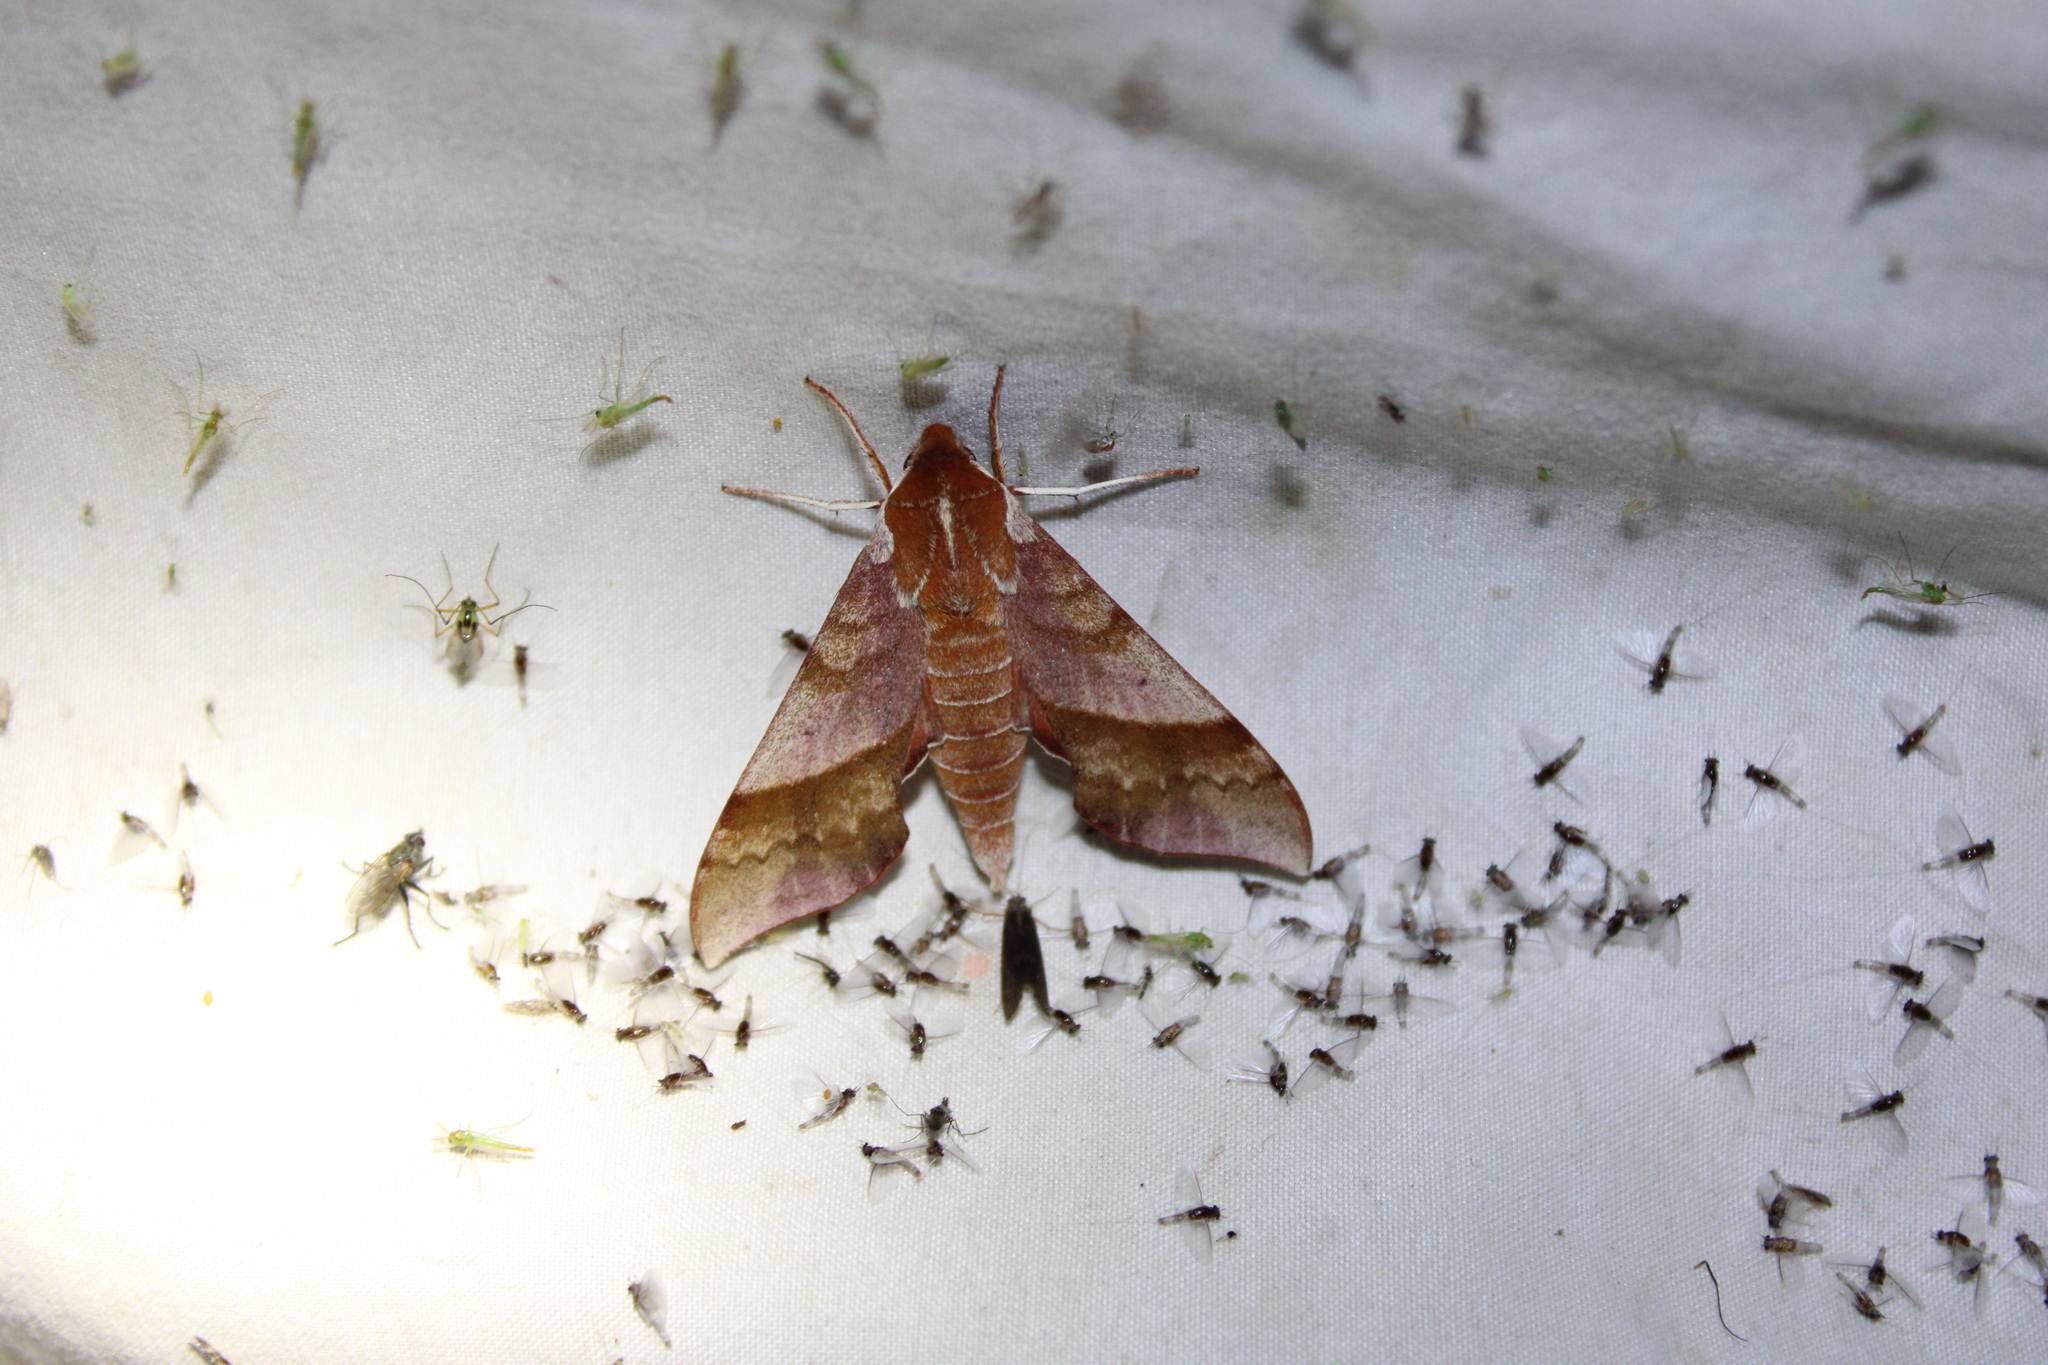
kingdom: Animalia
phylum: Arthropoda
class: Insecta
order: Lepidoptera
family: Sphingidae
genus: Darapsa
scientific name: Darapsa choerilus
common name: Azalea sphinx
